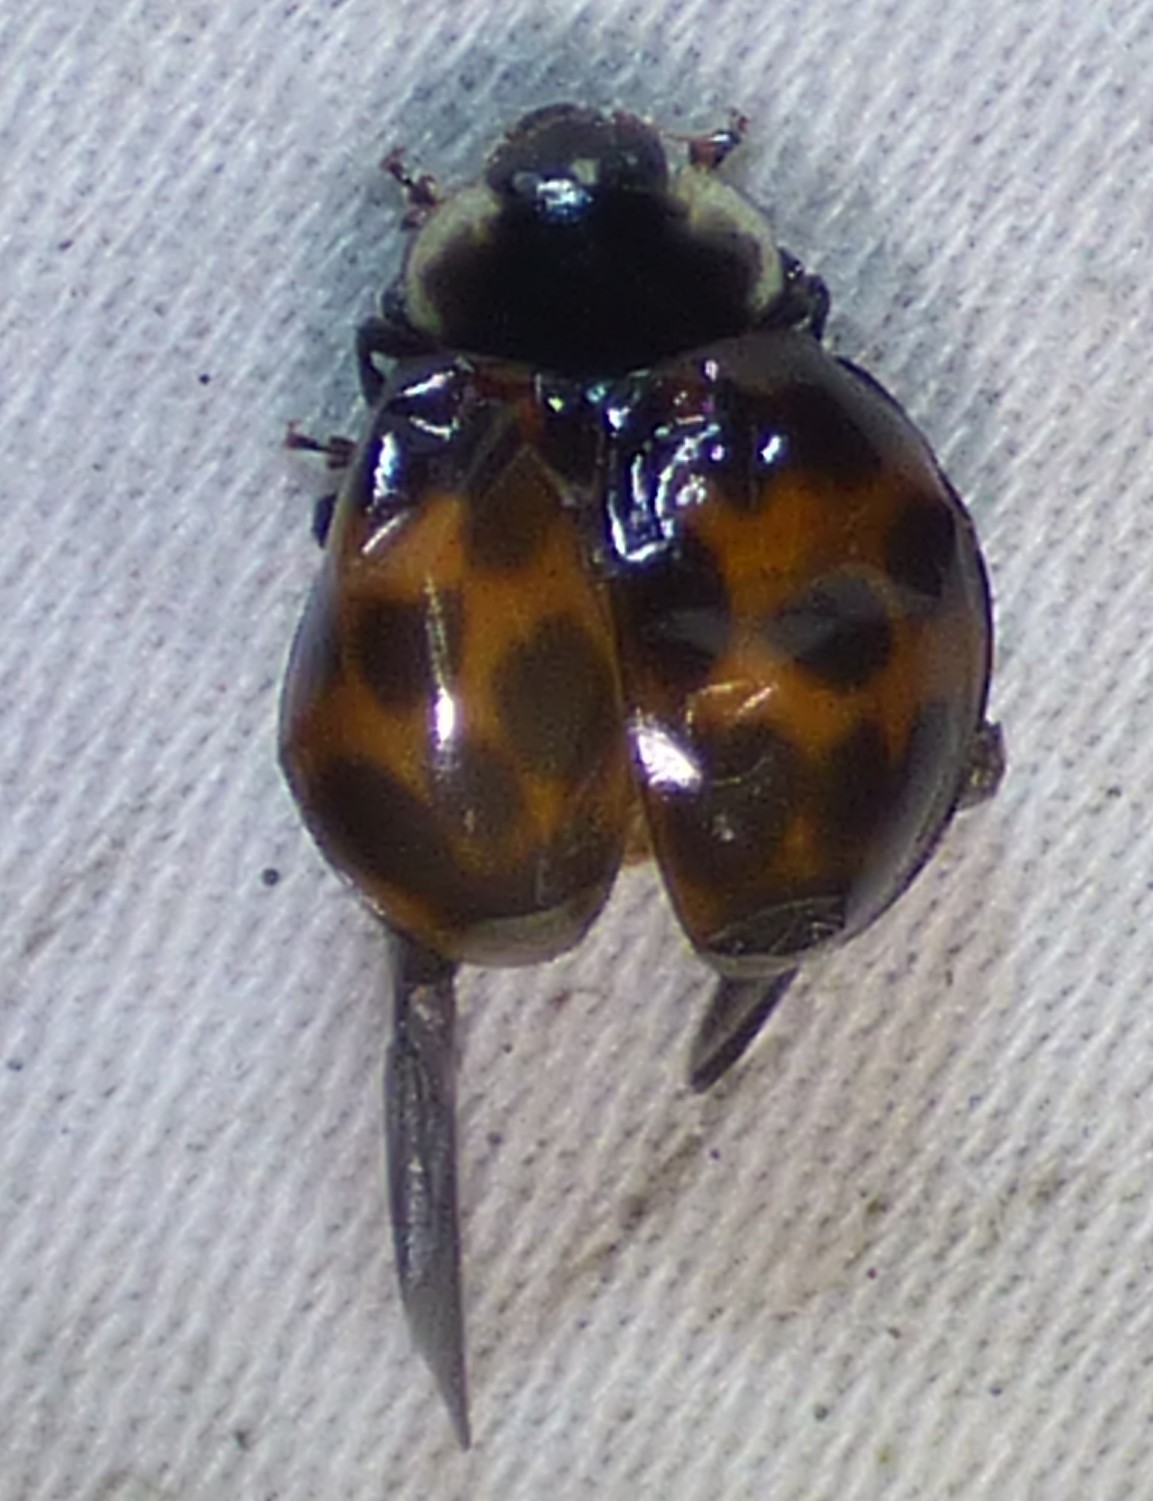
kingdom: Animalia
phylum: Arthropoda
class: Insecta
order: Coleoptera
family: Coccinellidae
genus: Harmonia
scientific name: Harmonia axyridis
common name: Harlequin ladybird
